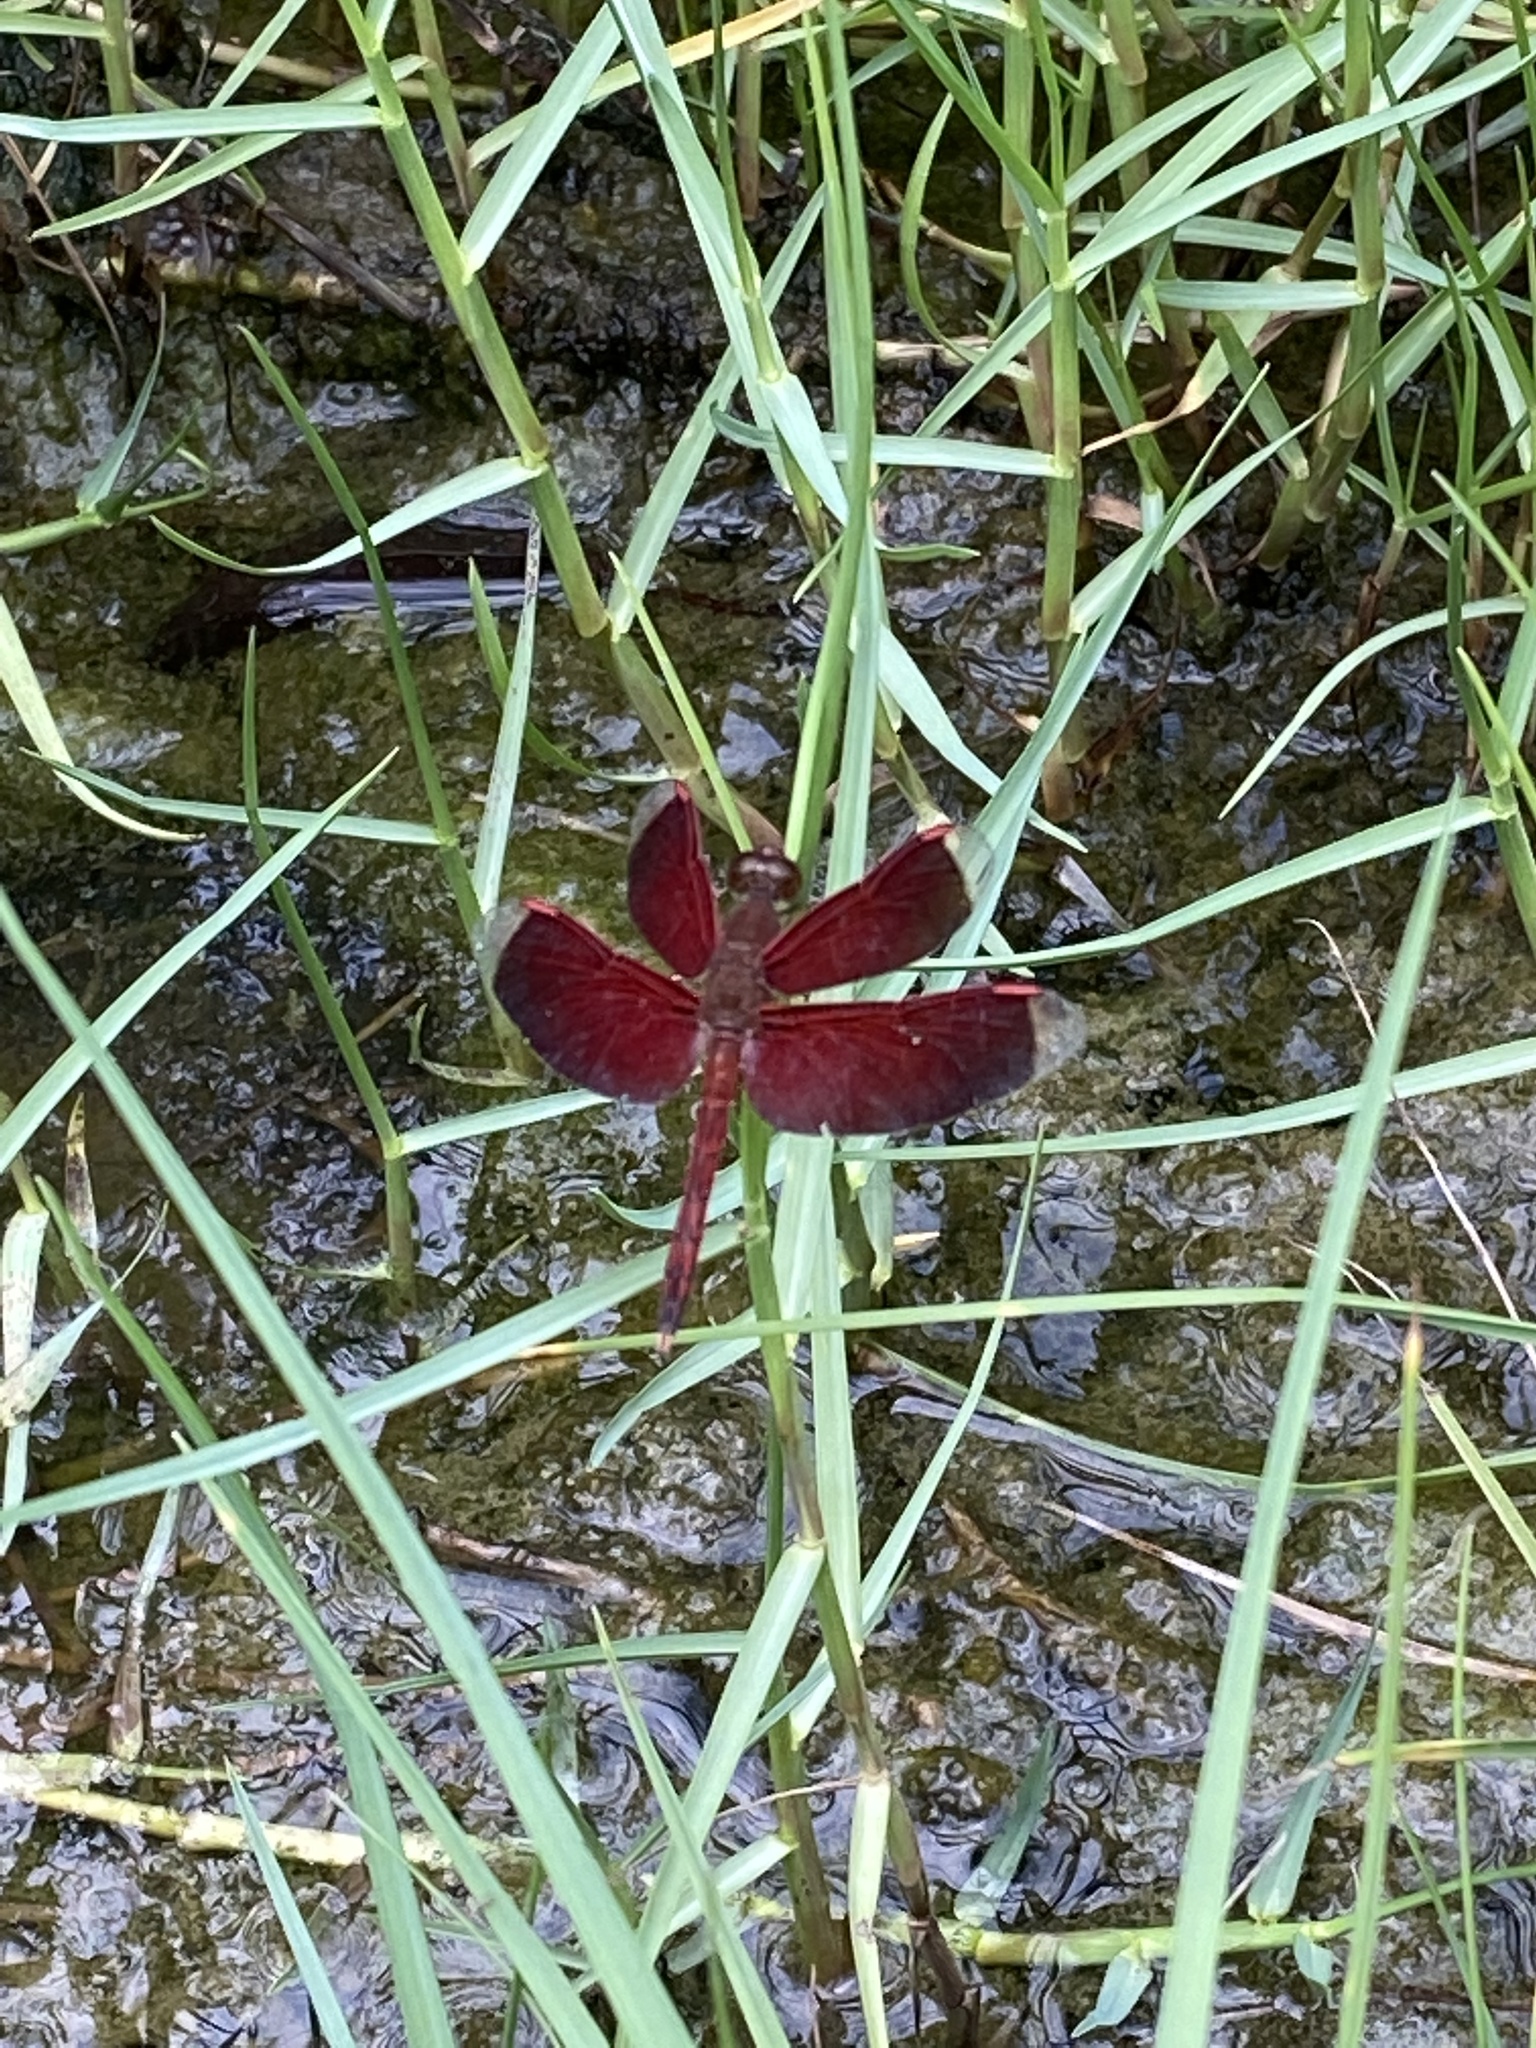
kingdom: Animalia
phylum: Arthropoda
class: Insecta
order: Odonata
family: Libellulidae
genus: Neurothemis
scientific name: Neurothemis terminata
